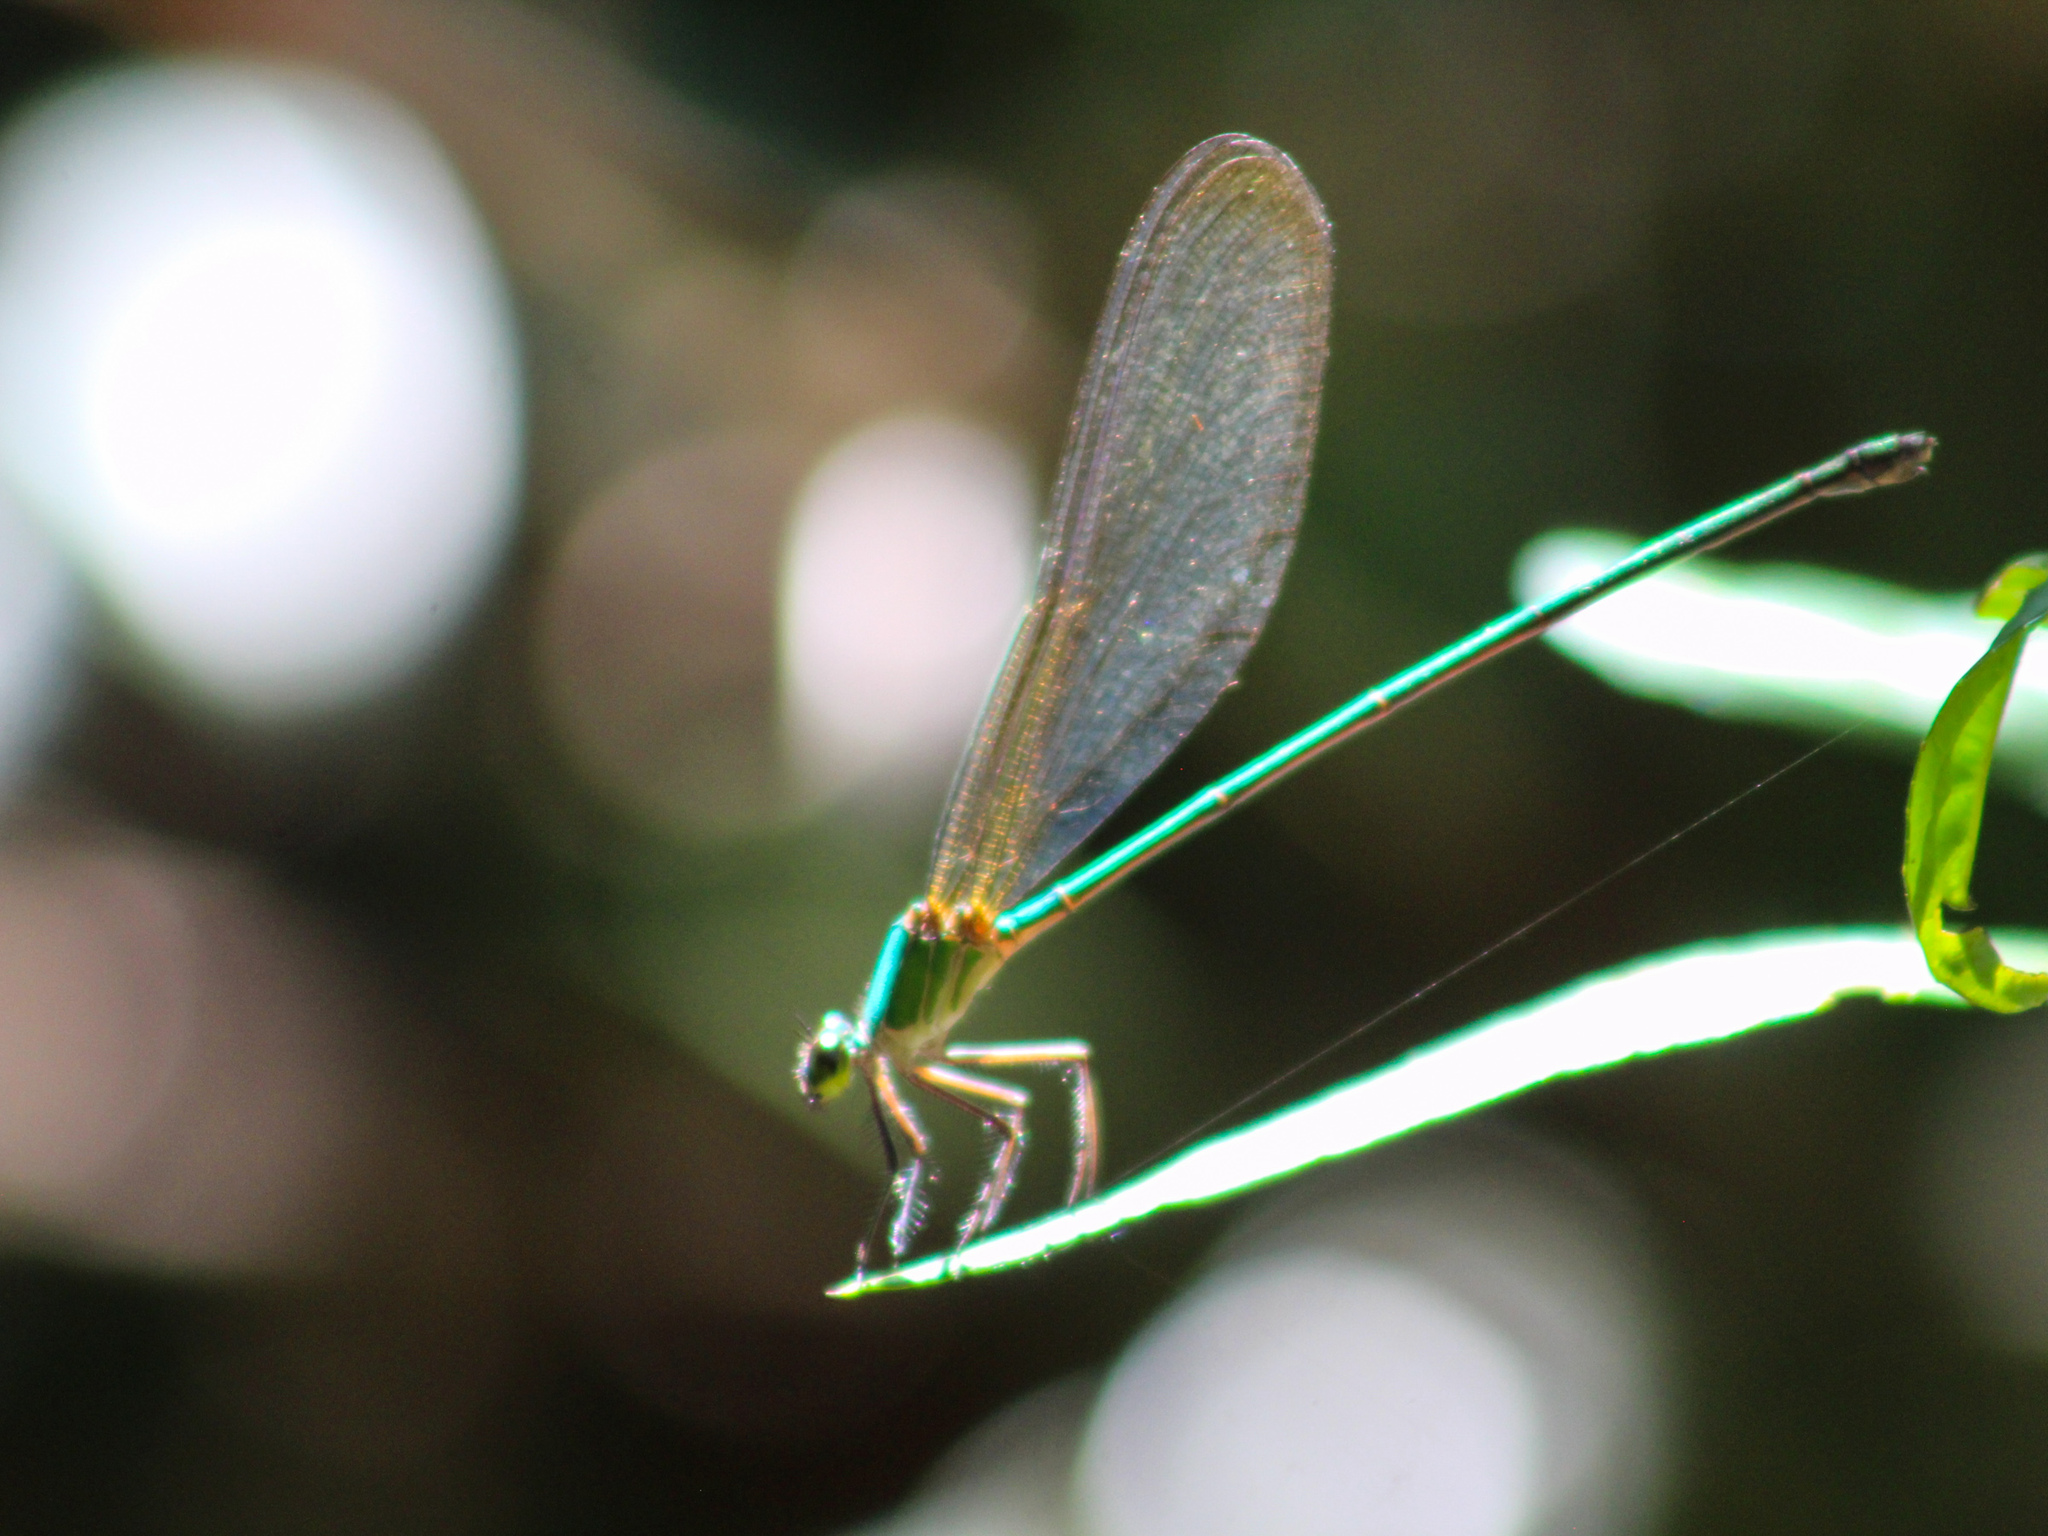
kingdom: Animalia
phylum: Arthropoda
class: Insecta
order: Odonata
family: Calopterygidae
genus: Vestalis
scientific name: Vestalis gracilis
